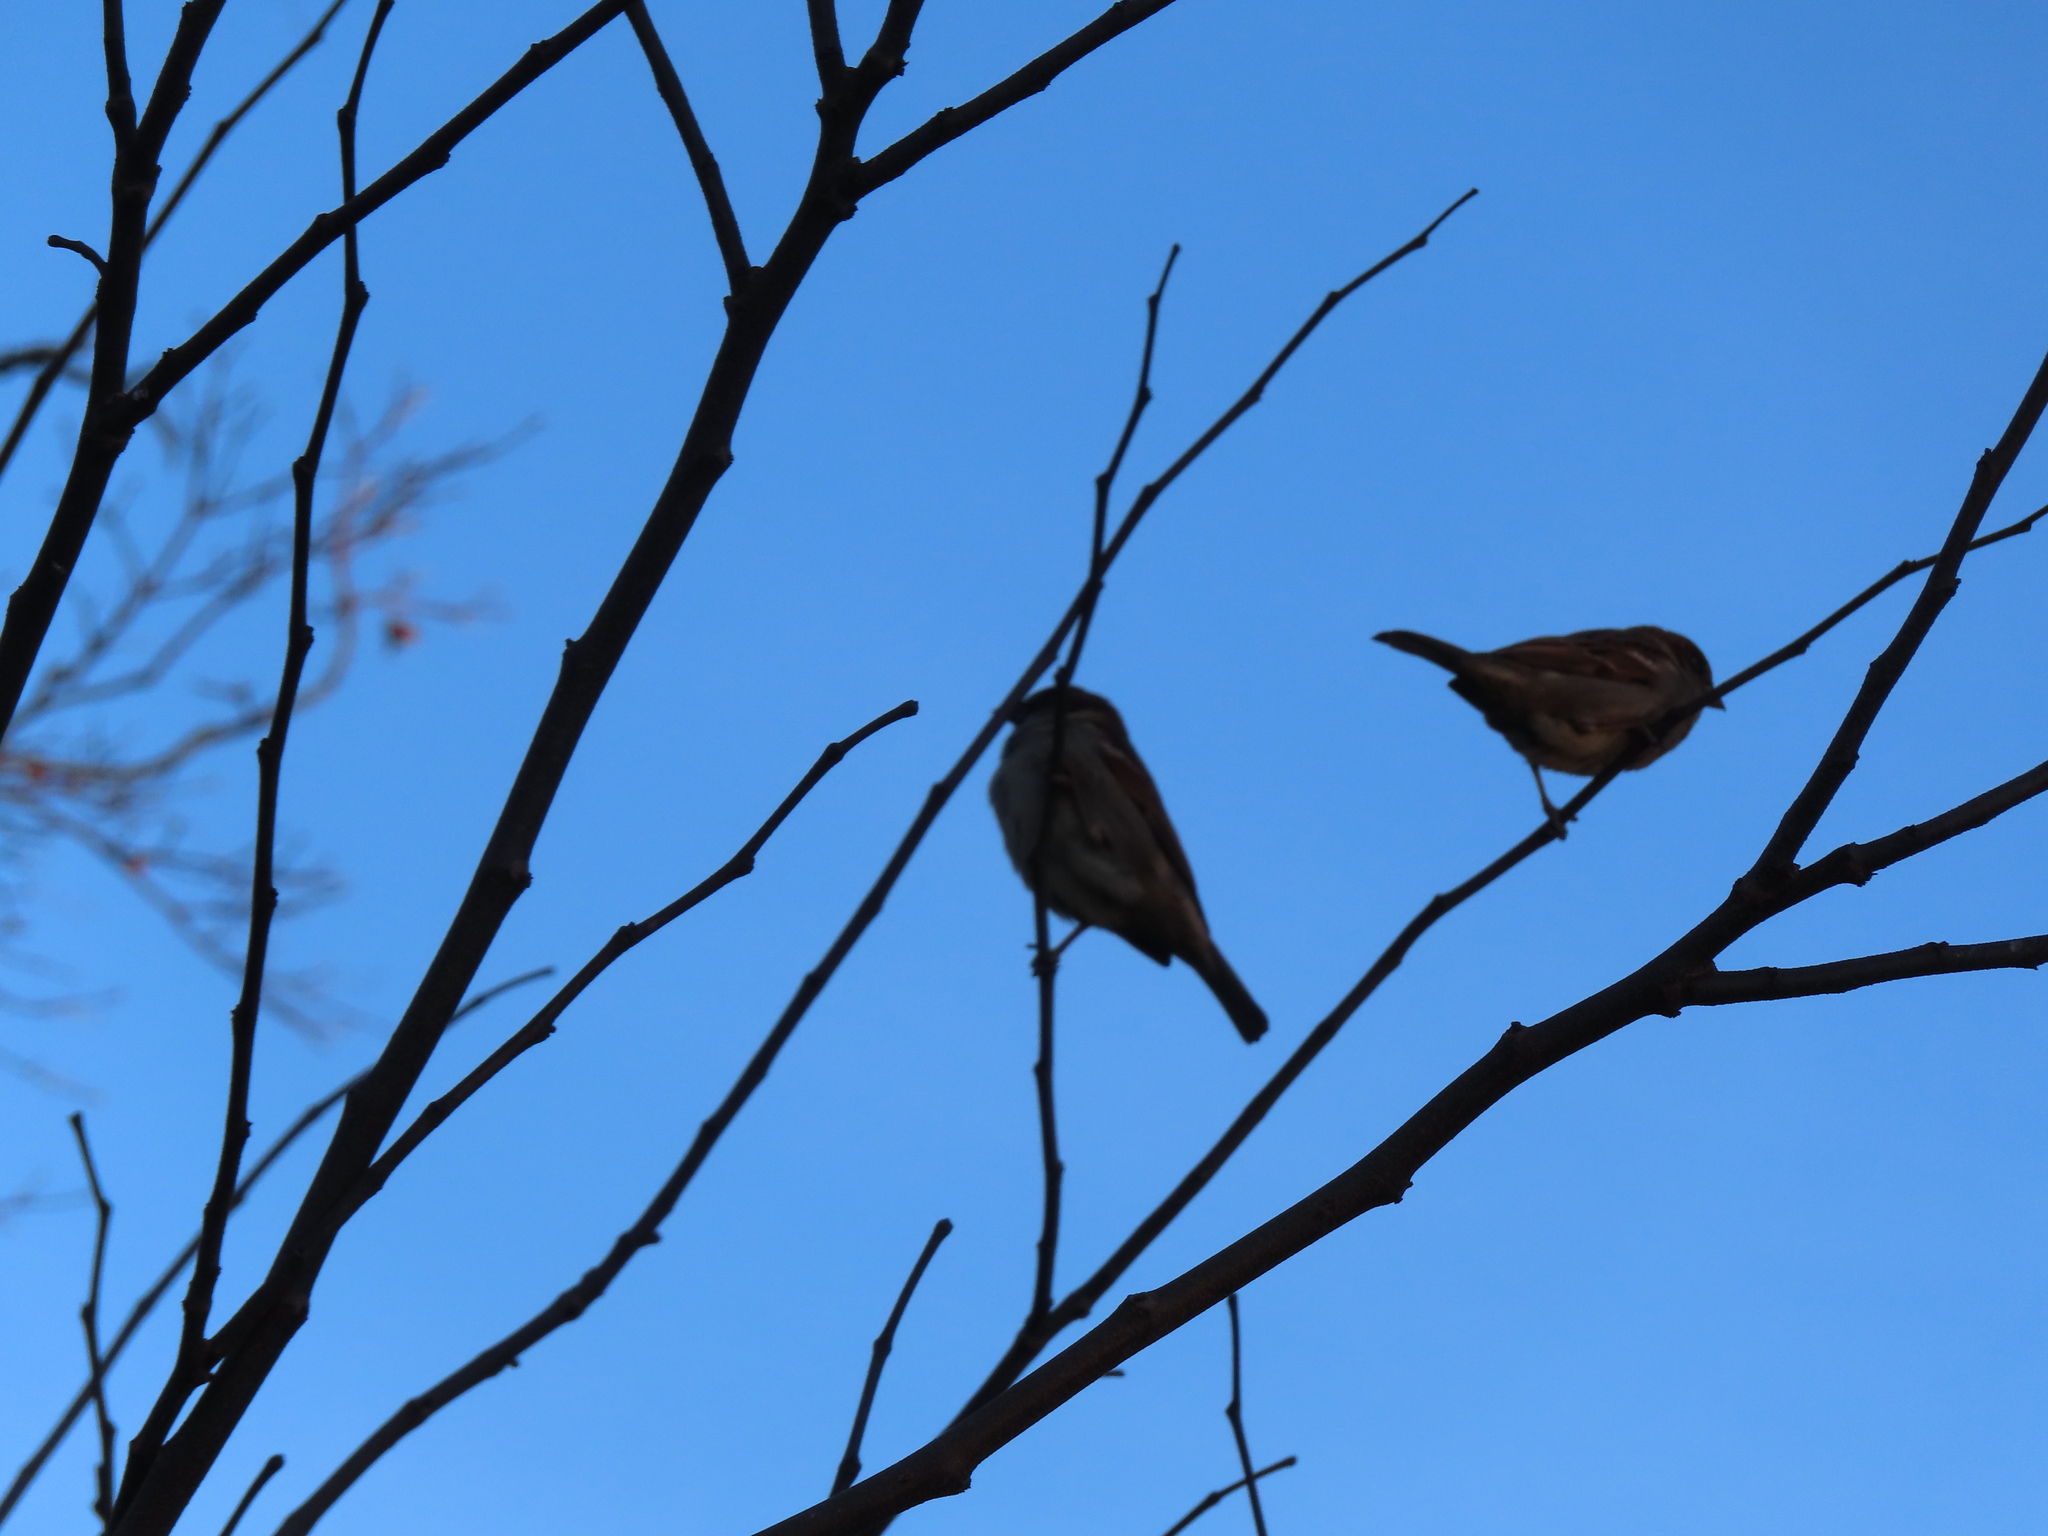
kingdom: Animalia
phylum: Chordata
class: Aves
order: Passeriformes
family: Passeridae
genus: Passer
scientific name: Passer domesticus
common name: House sparrow
